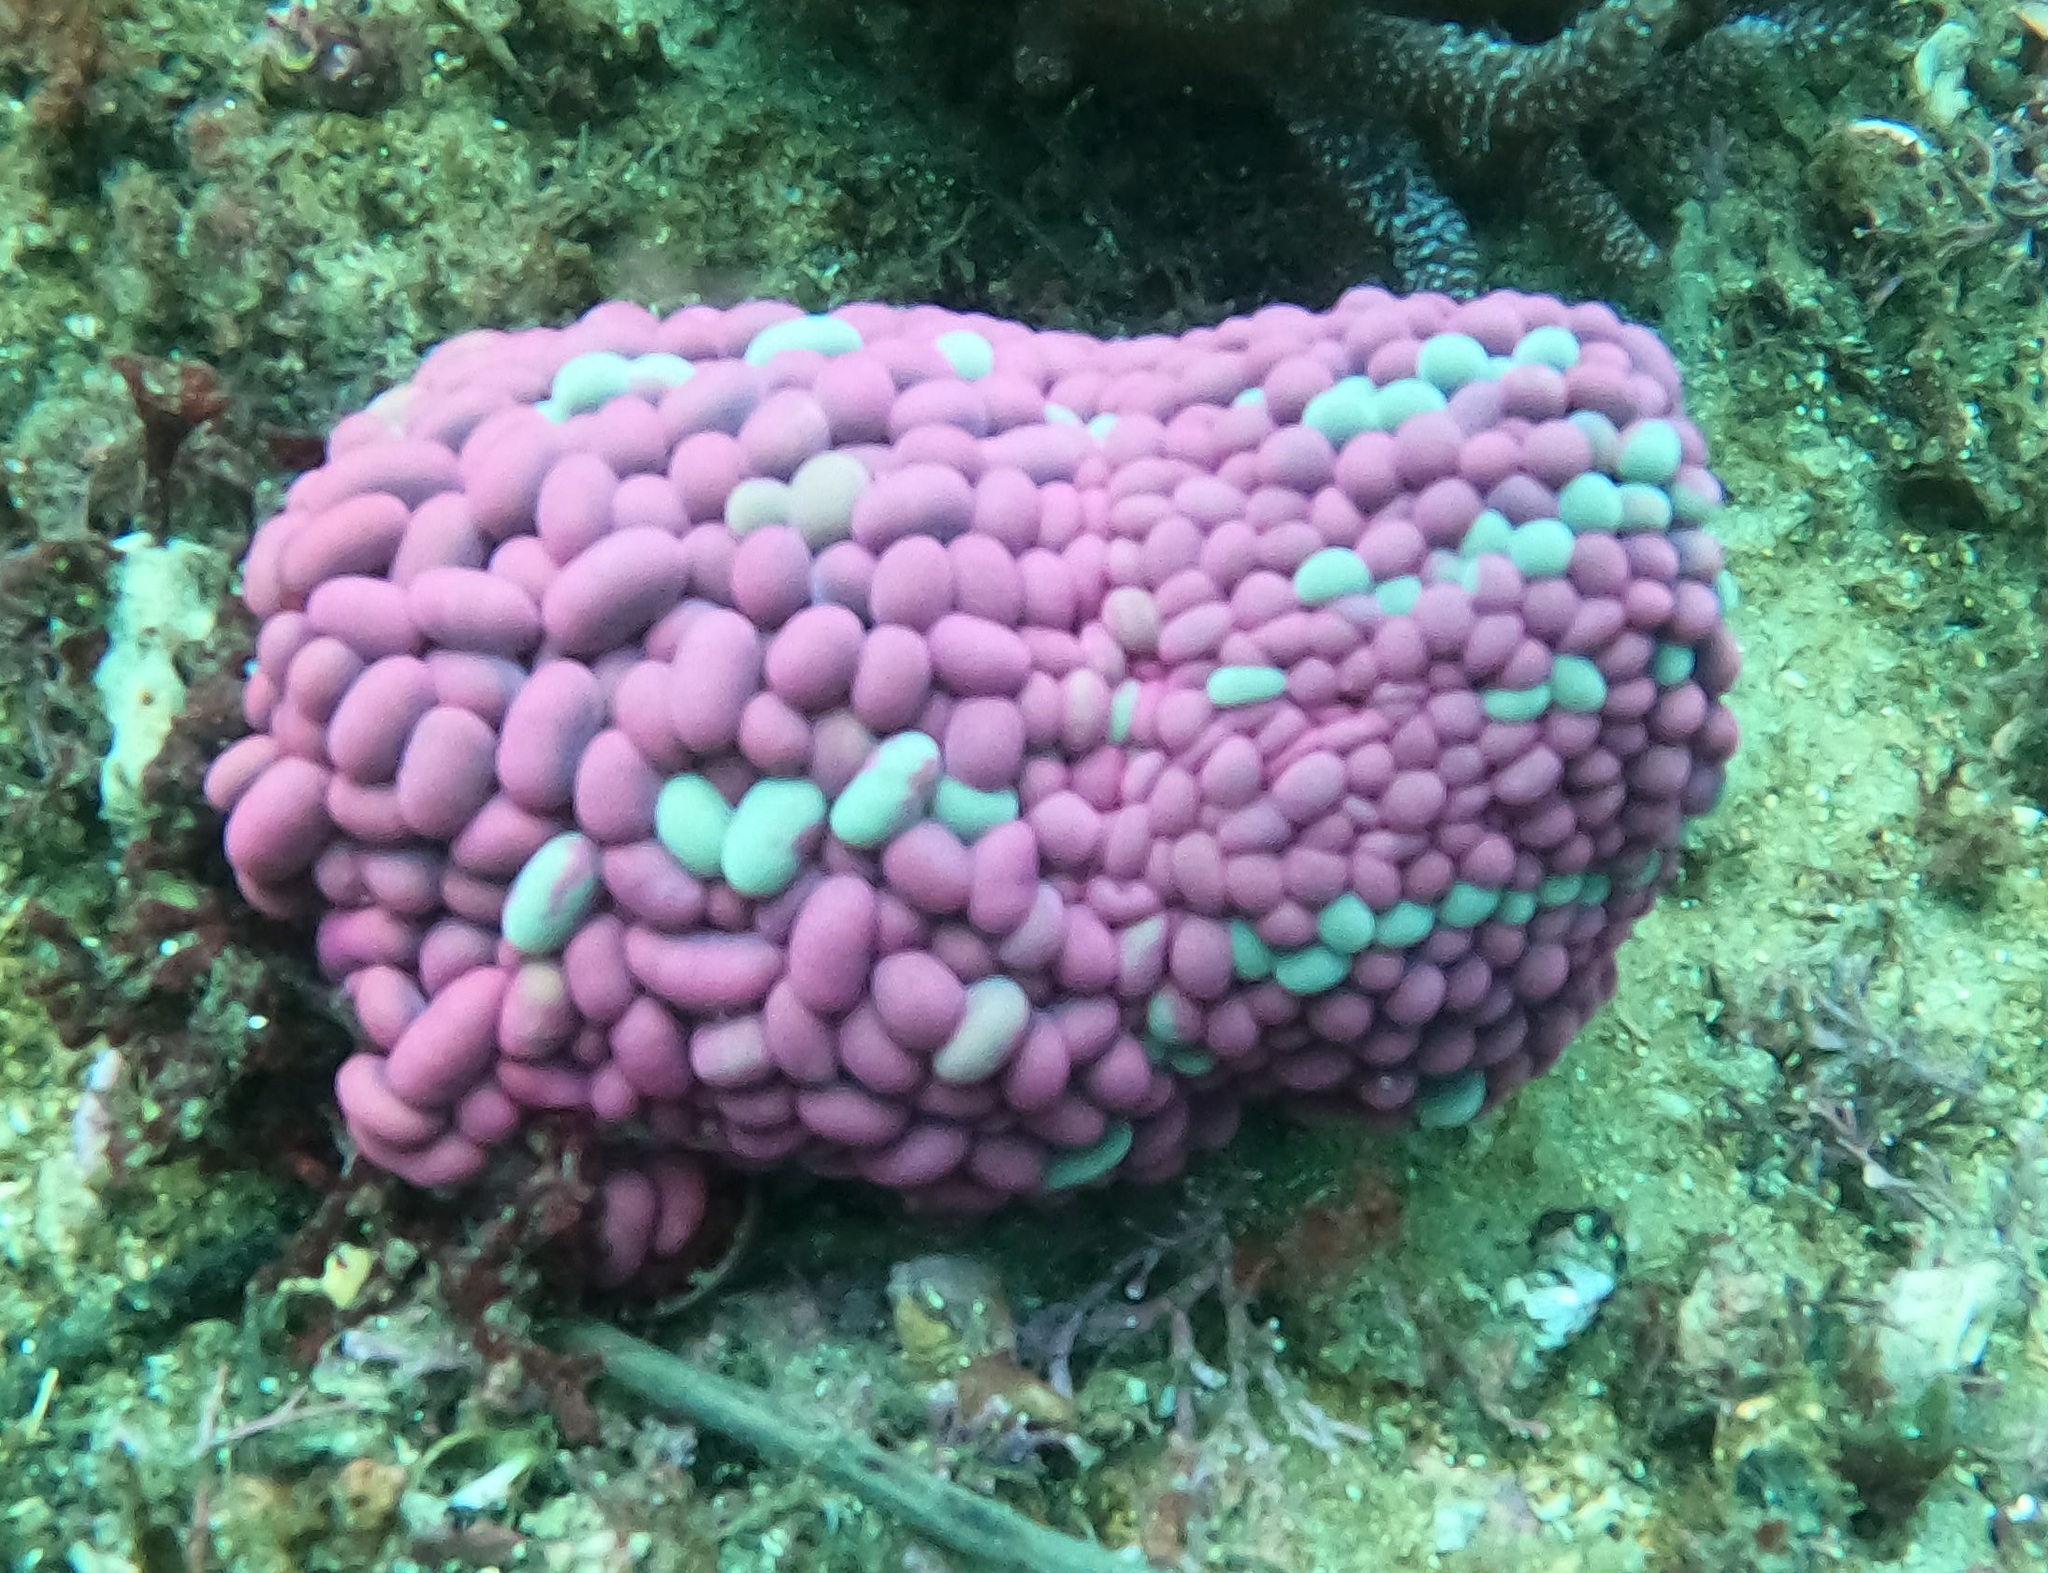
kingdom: Animalia
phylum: Cnidaria
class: Anthozoa
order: Actiniaria
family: Actiniidae
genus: Phlyctenactis
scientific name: Phlyctenactis tuberculosa
